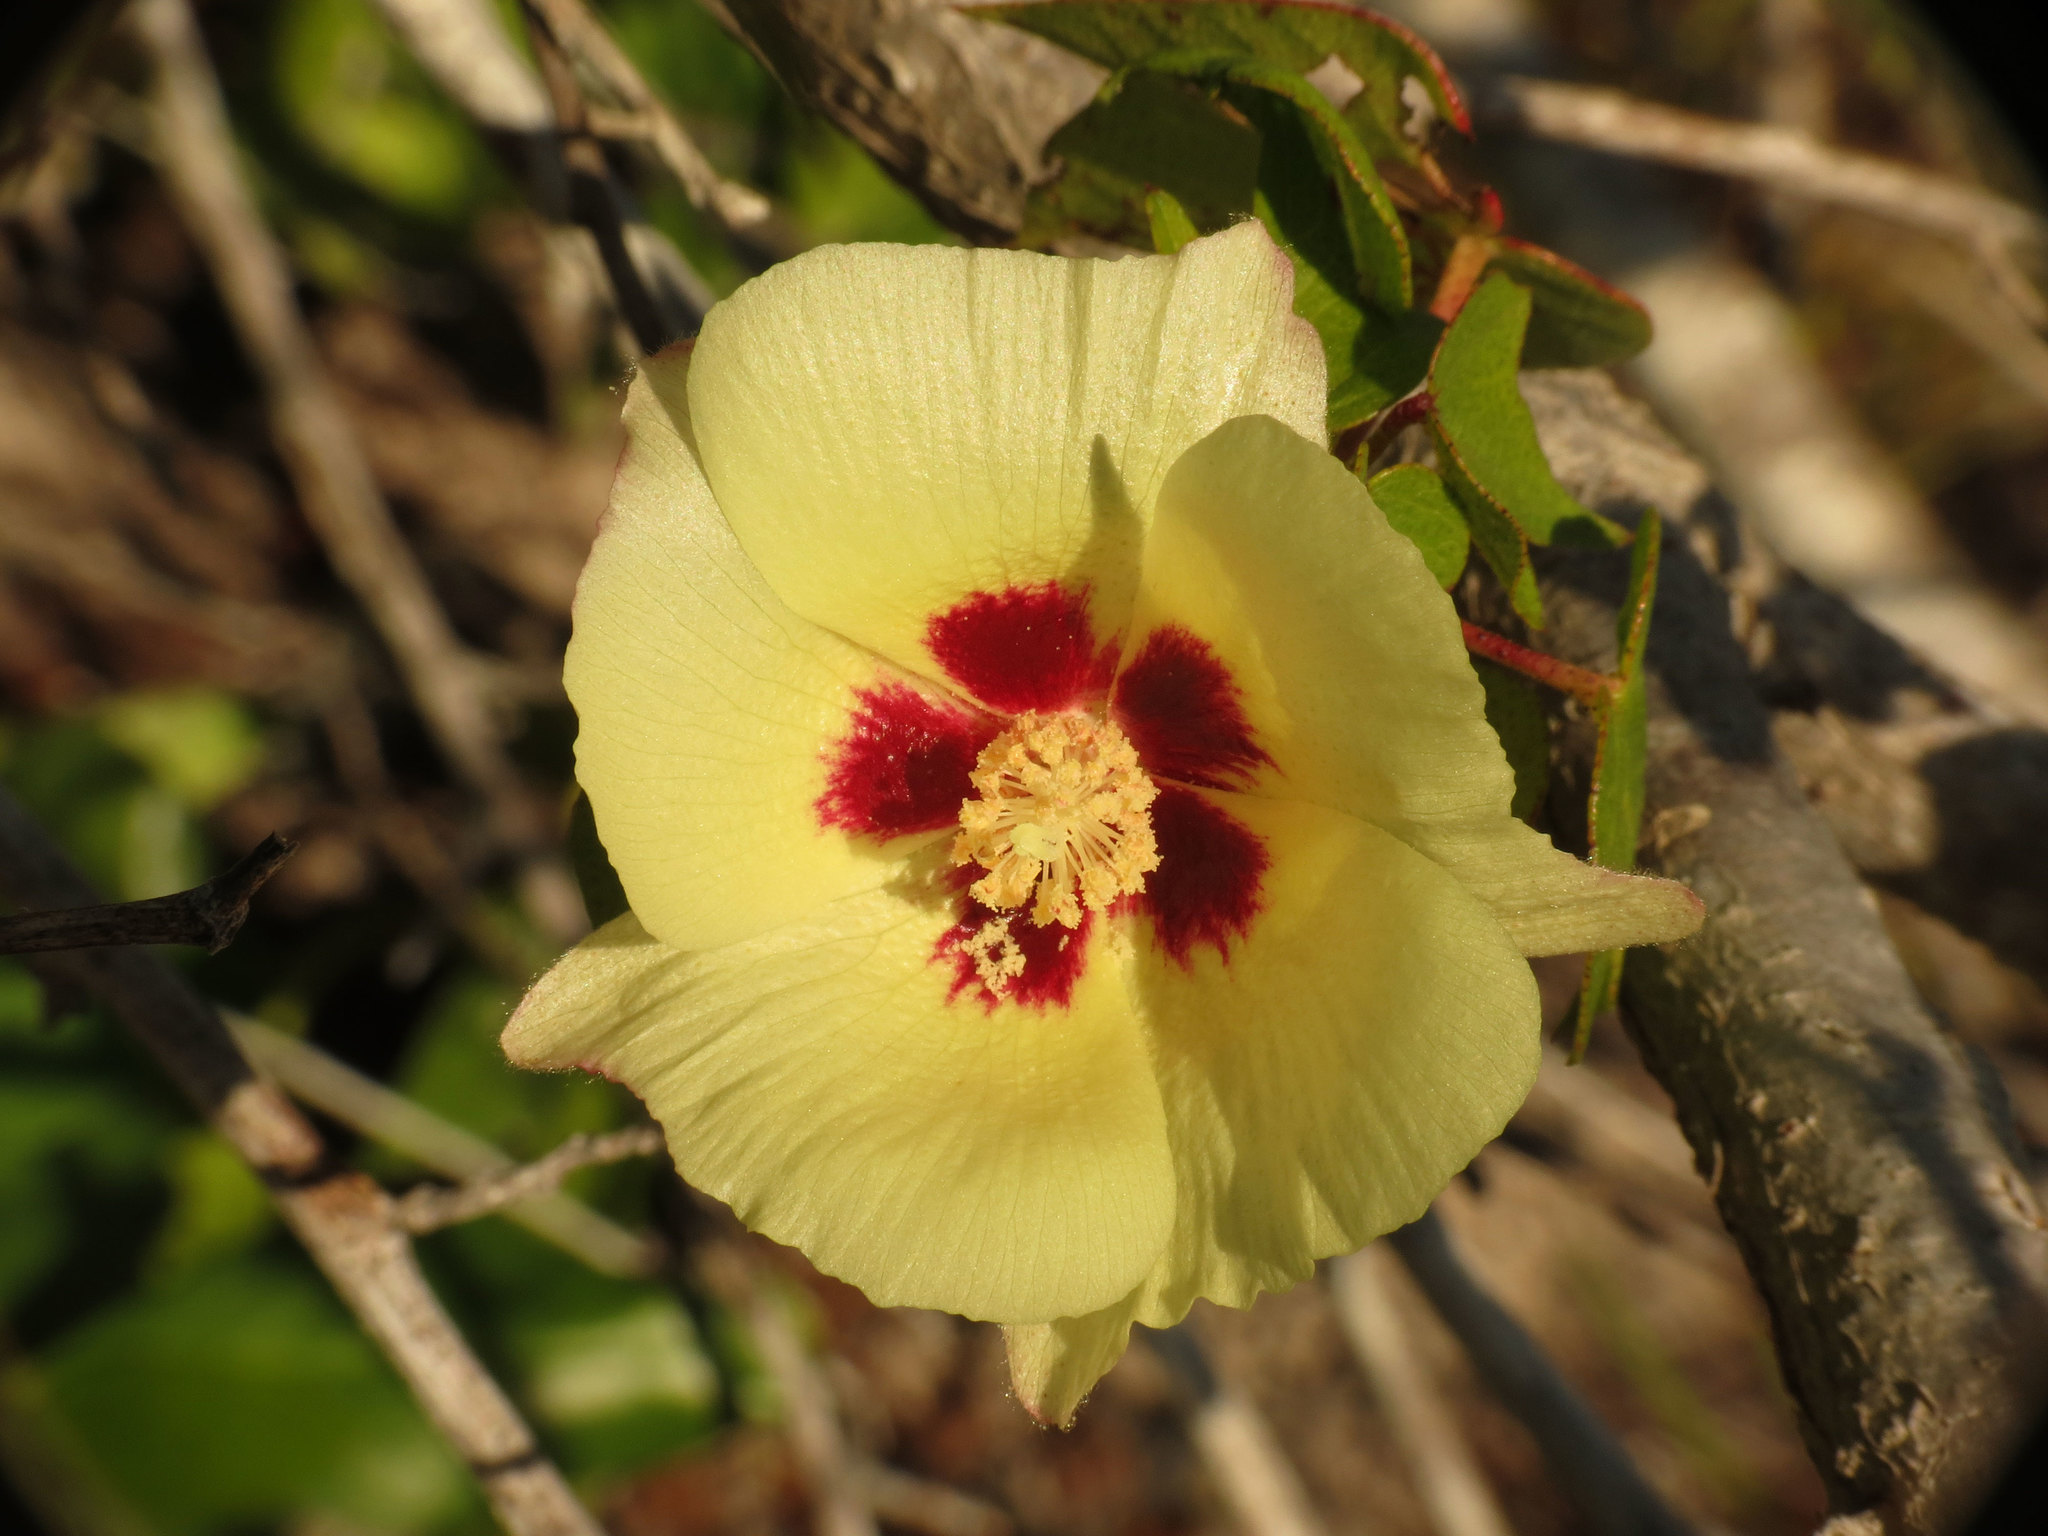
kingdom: Plantae
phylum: Tracheophyta
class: Magnoliopsida
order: Malvales
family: Malvaceae
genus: Gossypium
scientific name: Gossypium hirsutum
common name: Cotton
